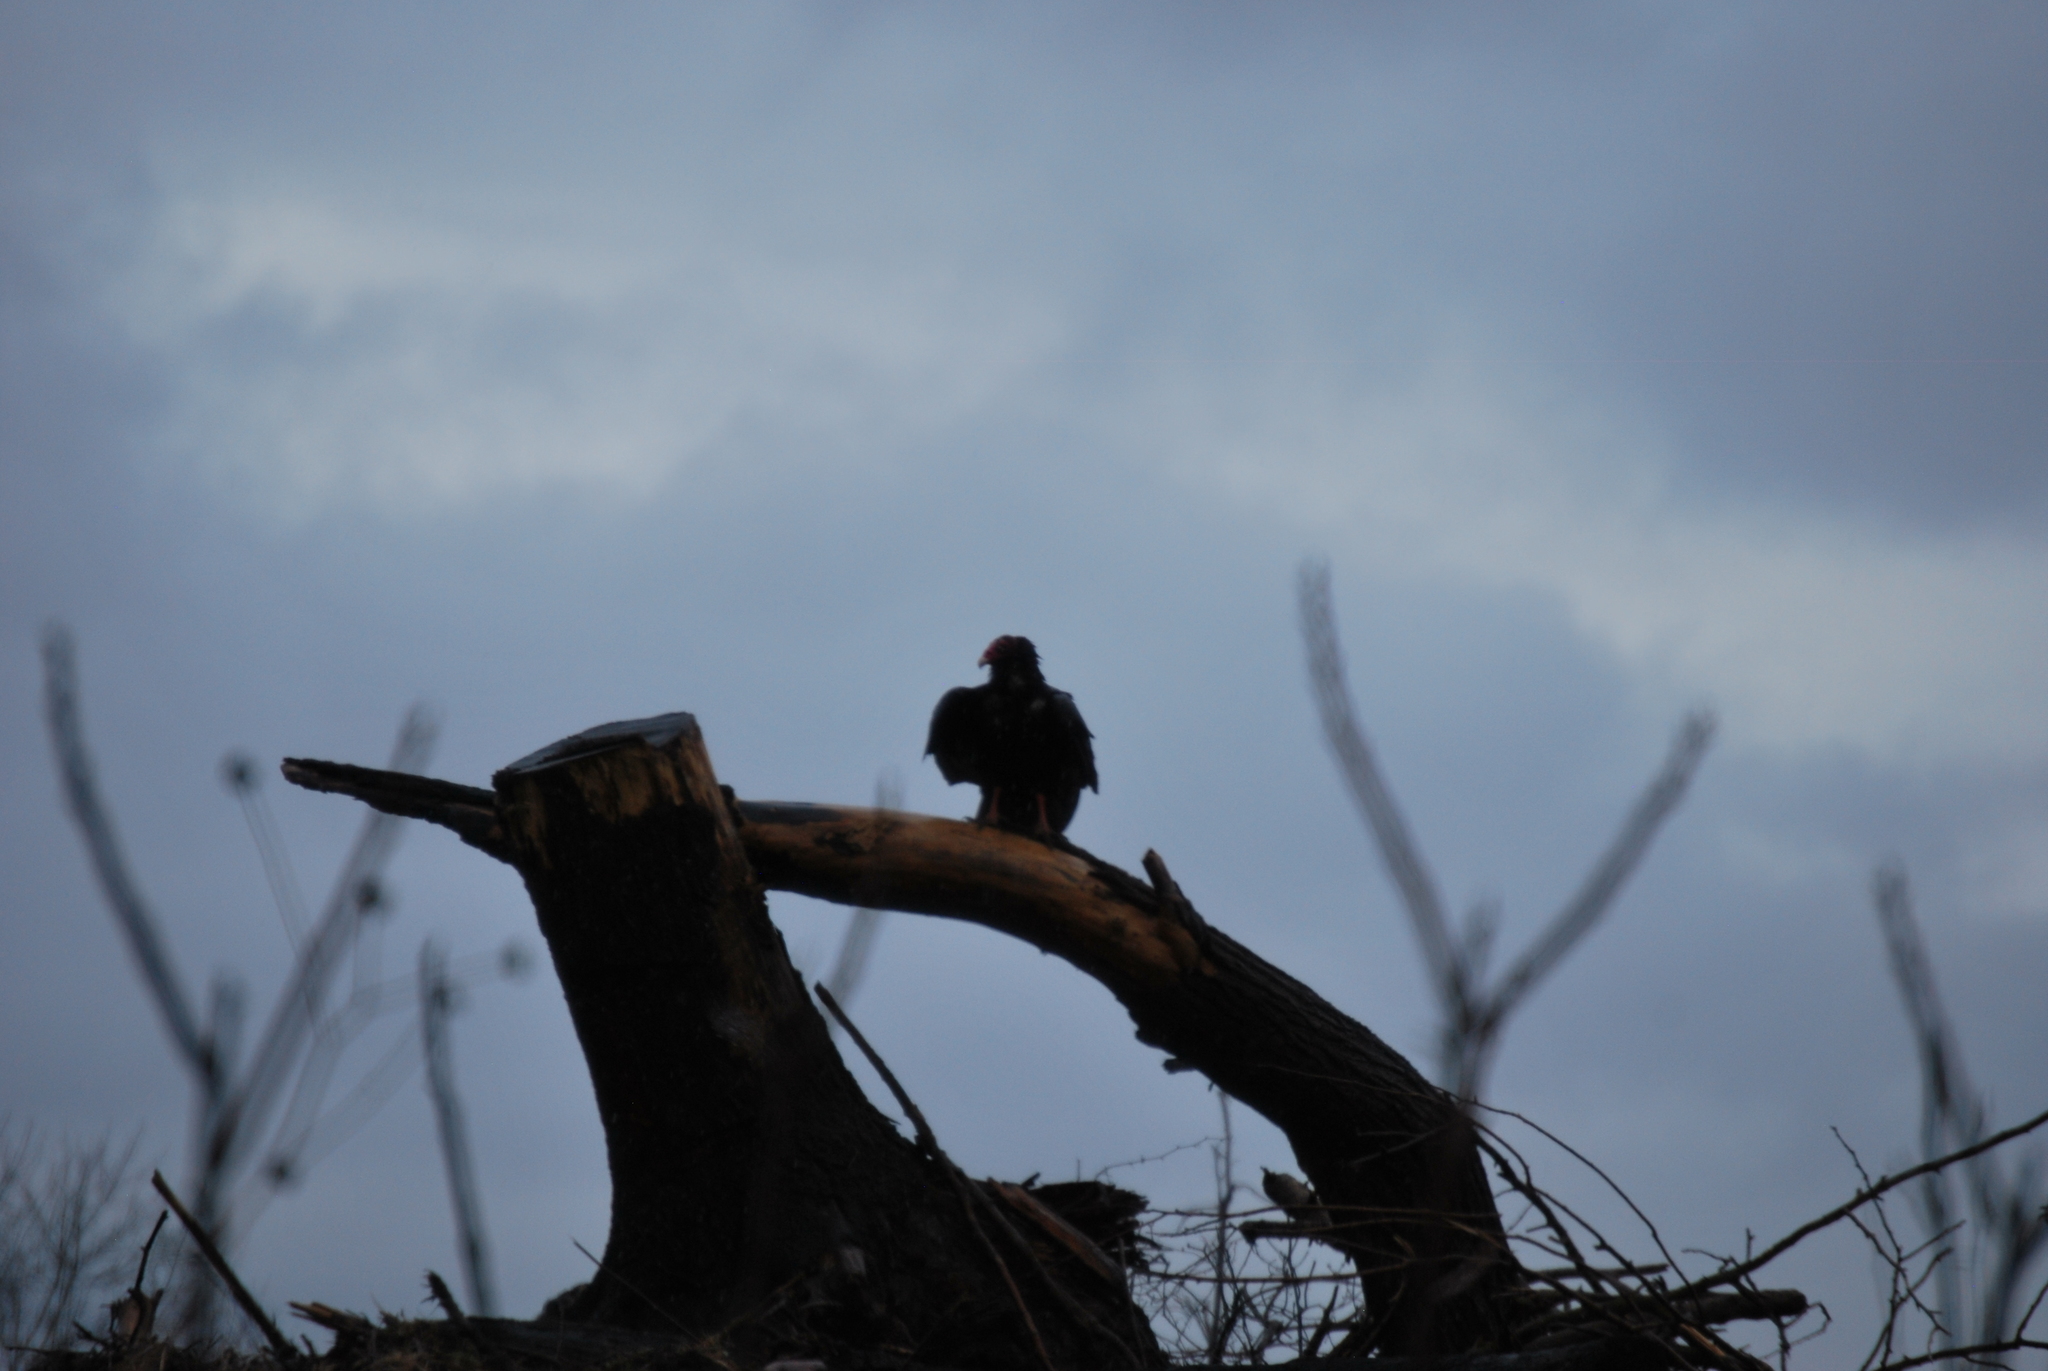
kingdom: Animalia
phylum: Chordata
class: Aves
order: Accipitriformes
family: Cathartidae
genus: Cathartes
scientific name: Cathartes aura
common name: Turkey vulture
